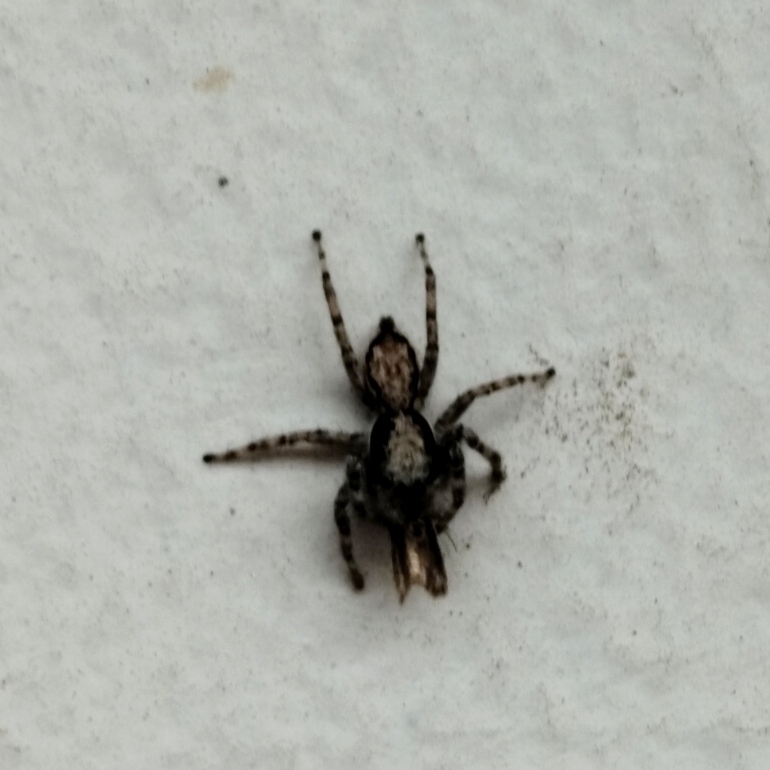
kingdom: Animalia
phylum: Arthropoda
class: Arachnida
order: Araneae
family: Salticidae
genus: Menemerus
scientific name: Menemerus bivittatus
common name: Gray wall jumper
